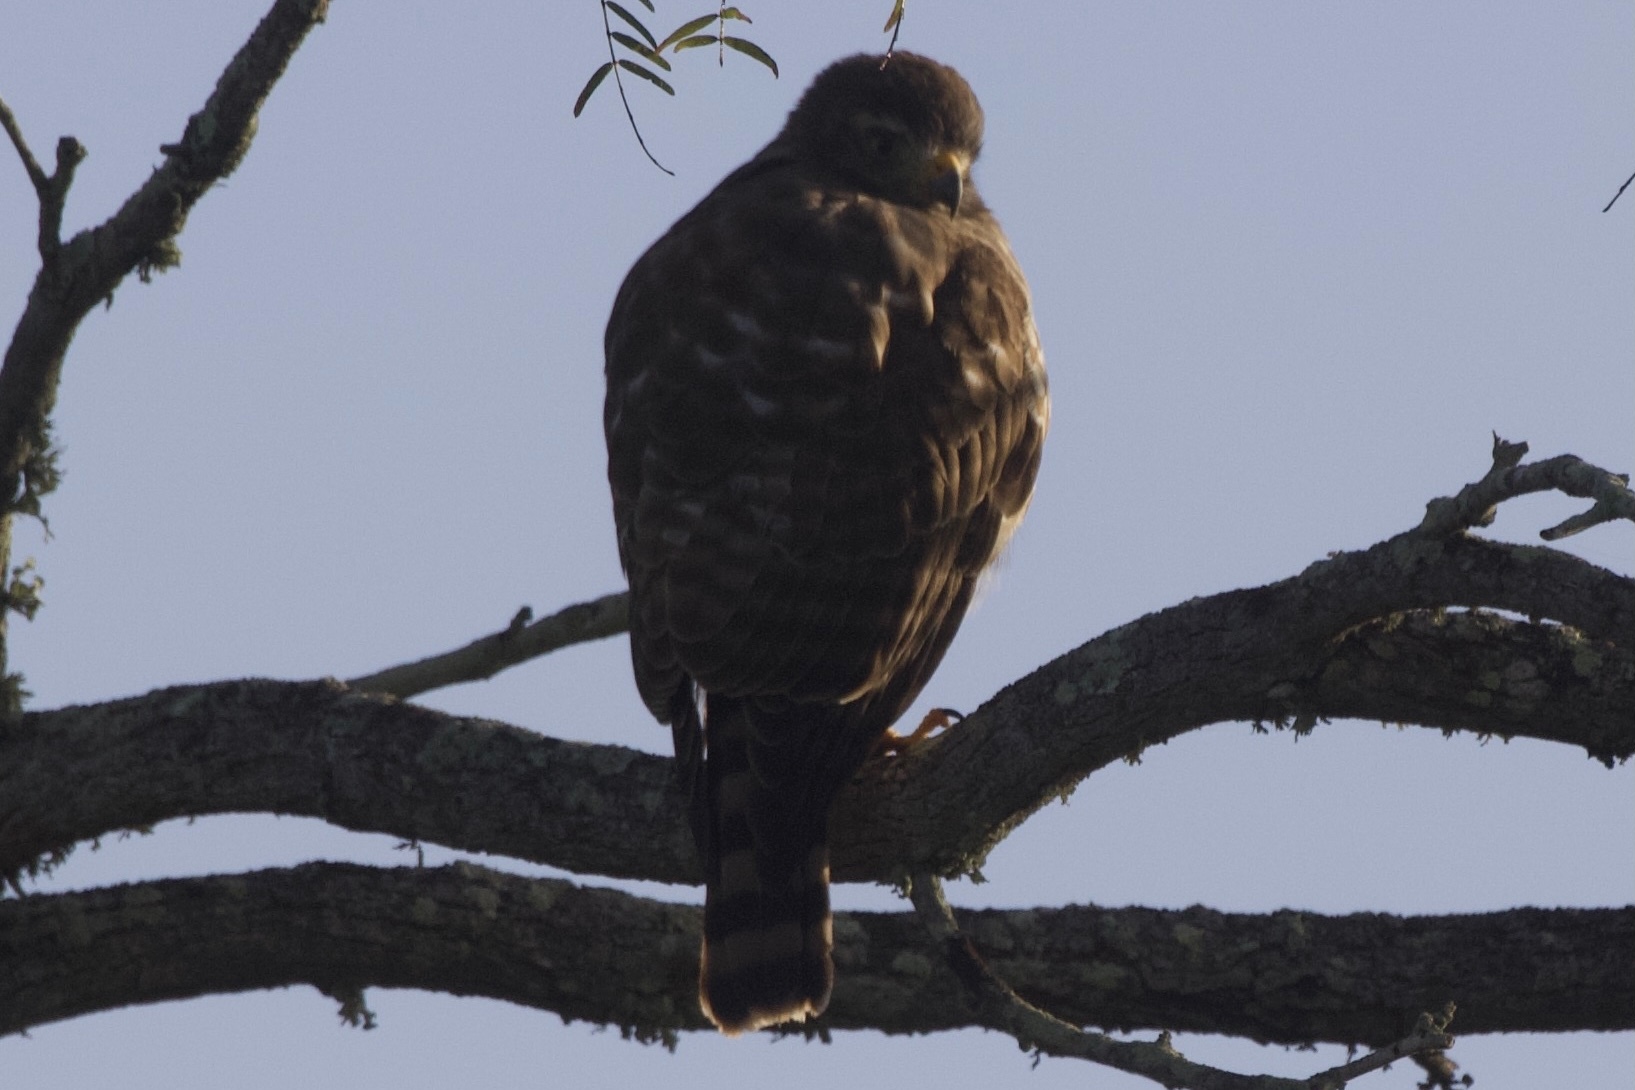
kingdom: Animalia
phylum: Chordata
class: Aves
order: Accipitriformes
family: Accipitridae
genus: Rupornis
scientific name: Rupornis magnirostris
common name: Roadside hawk
